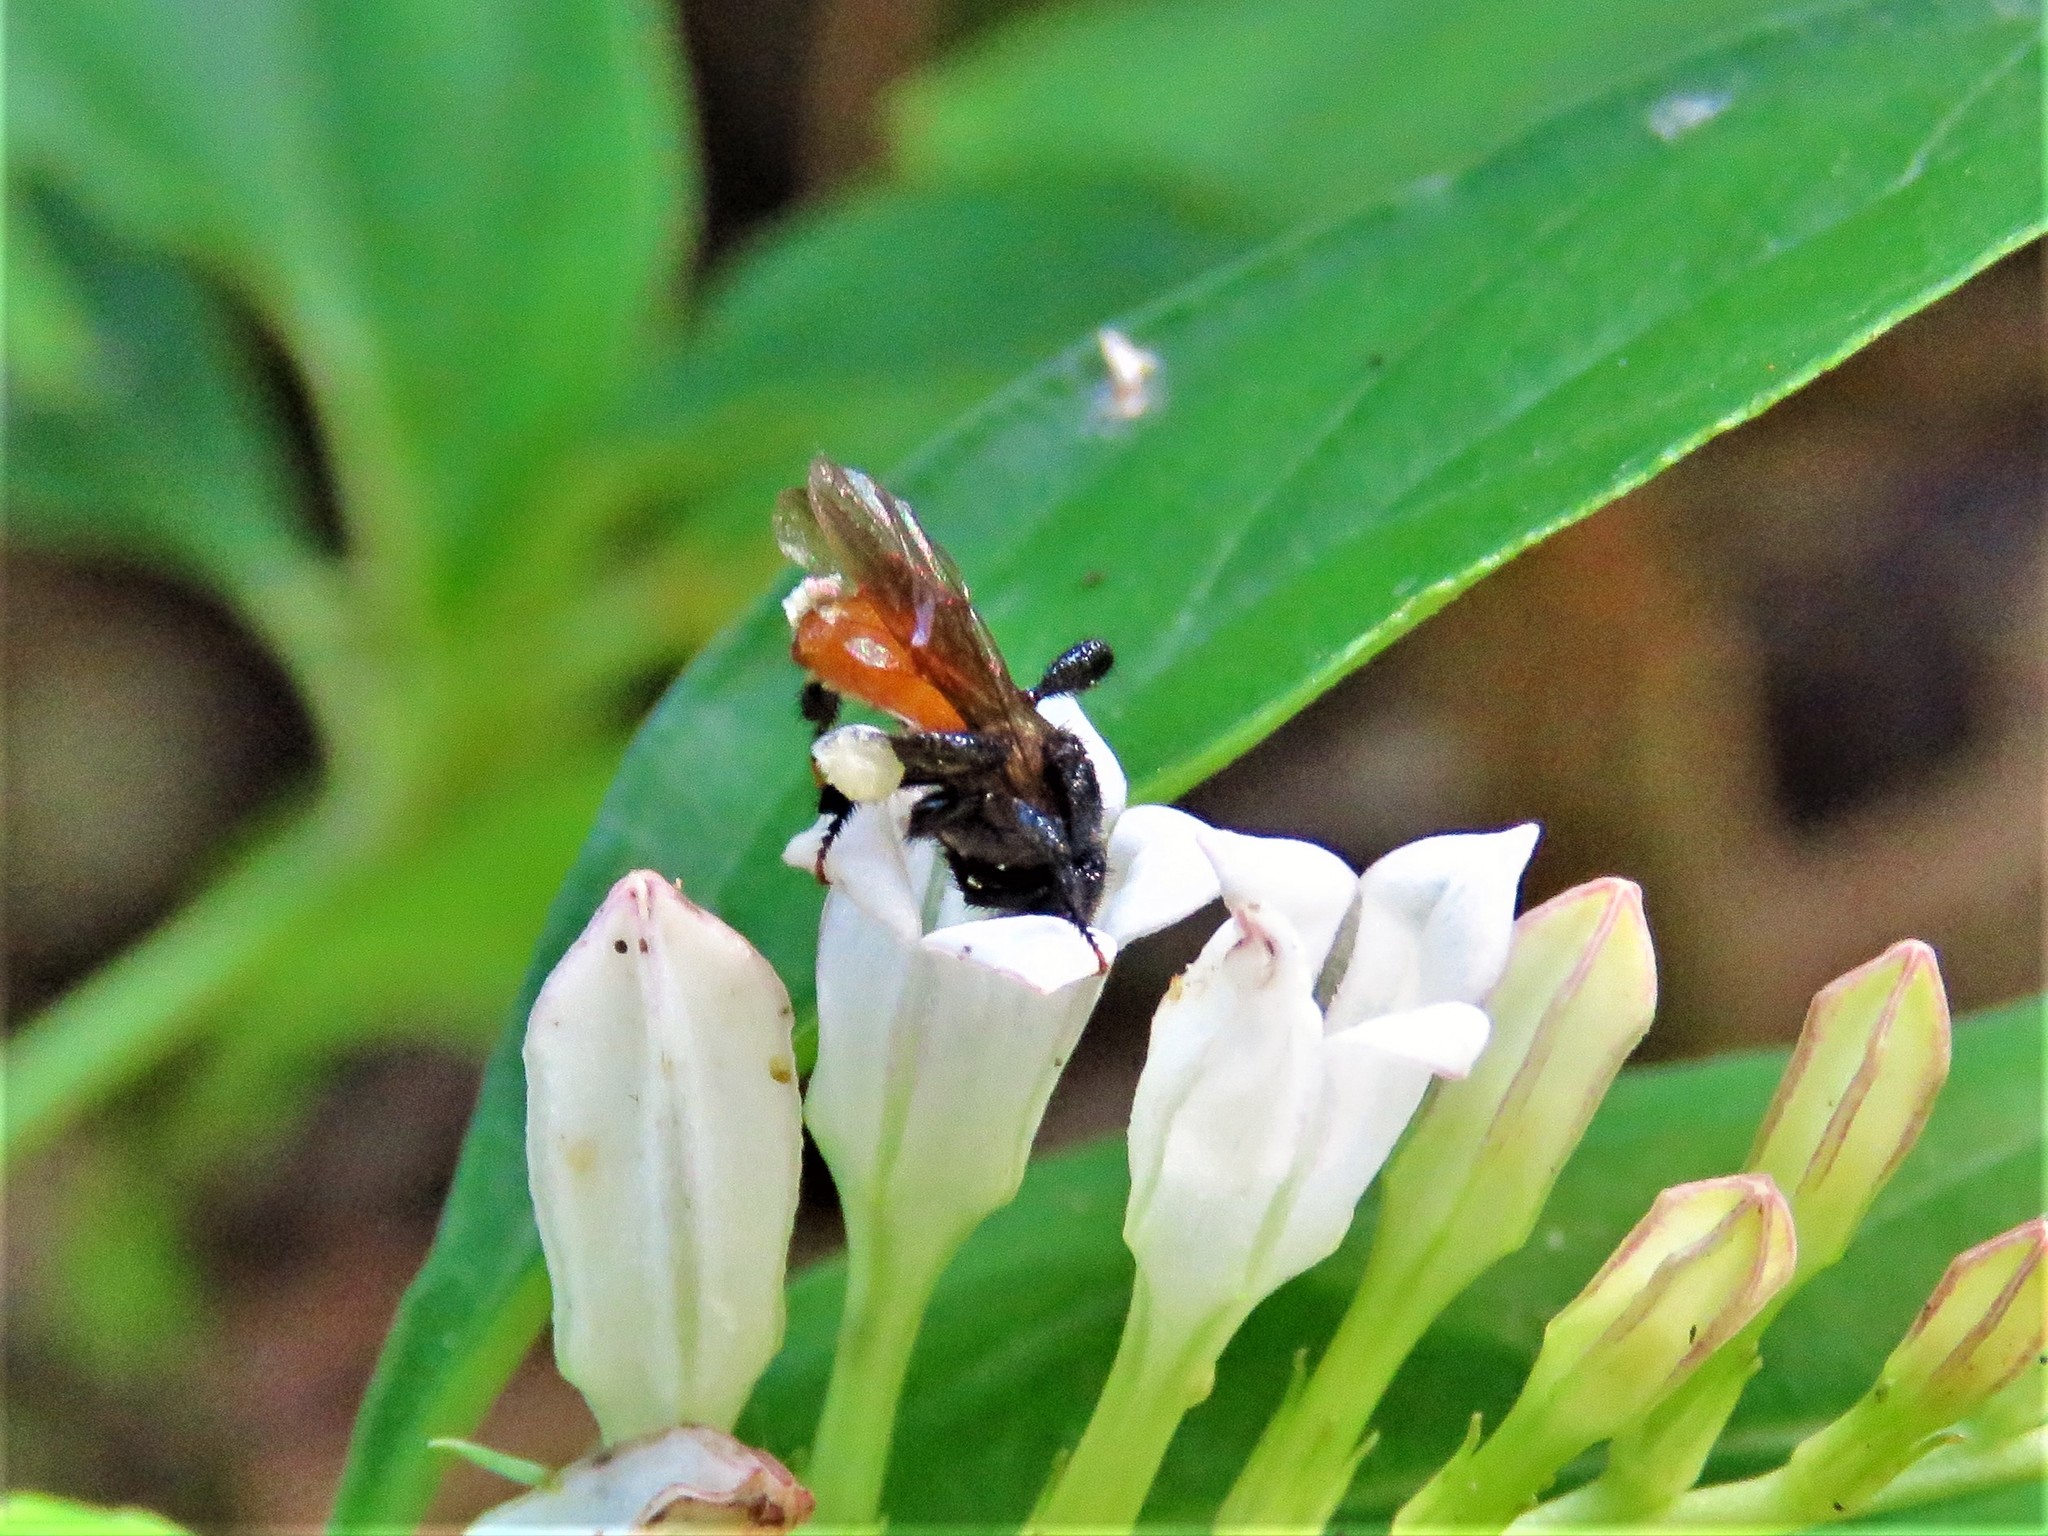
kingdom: Animalia
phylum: Arthropoda
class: Insecta
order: Hymenoptera
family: Apidae
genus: Trigona
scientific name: Trigona fulviventris
